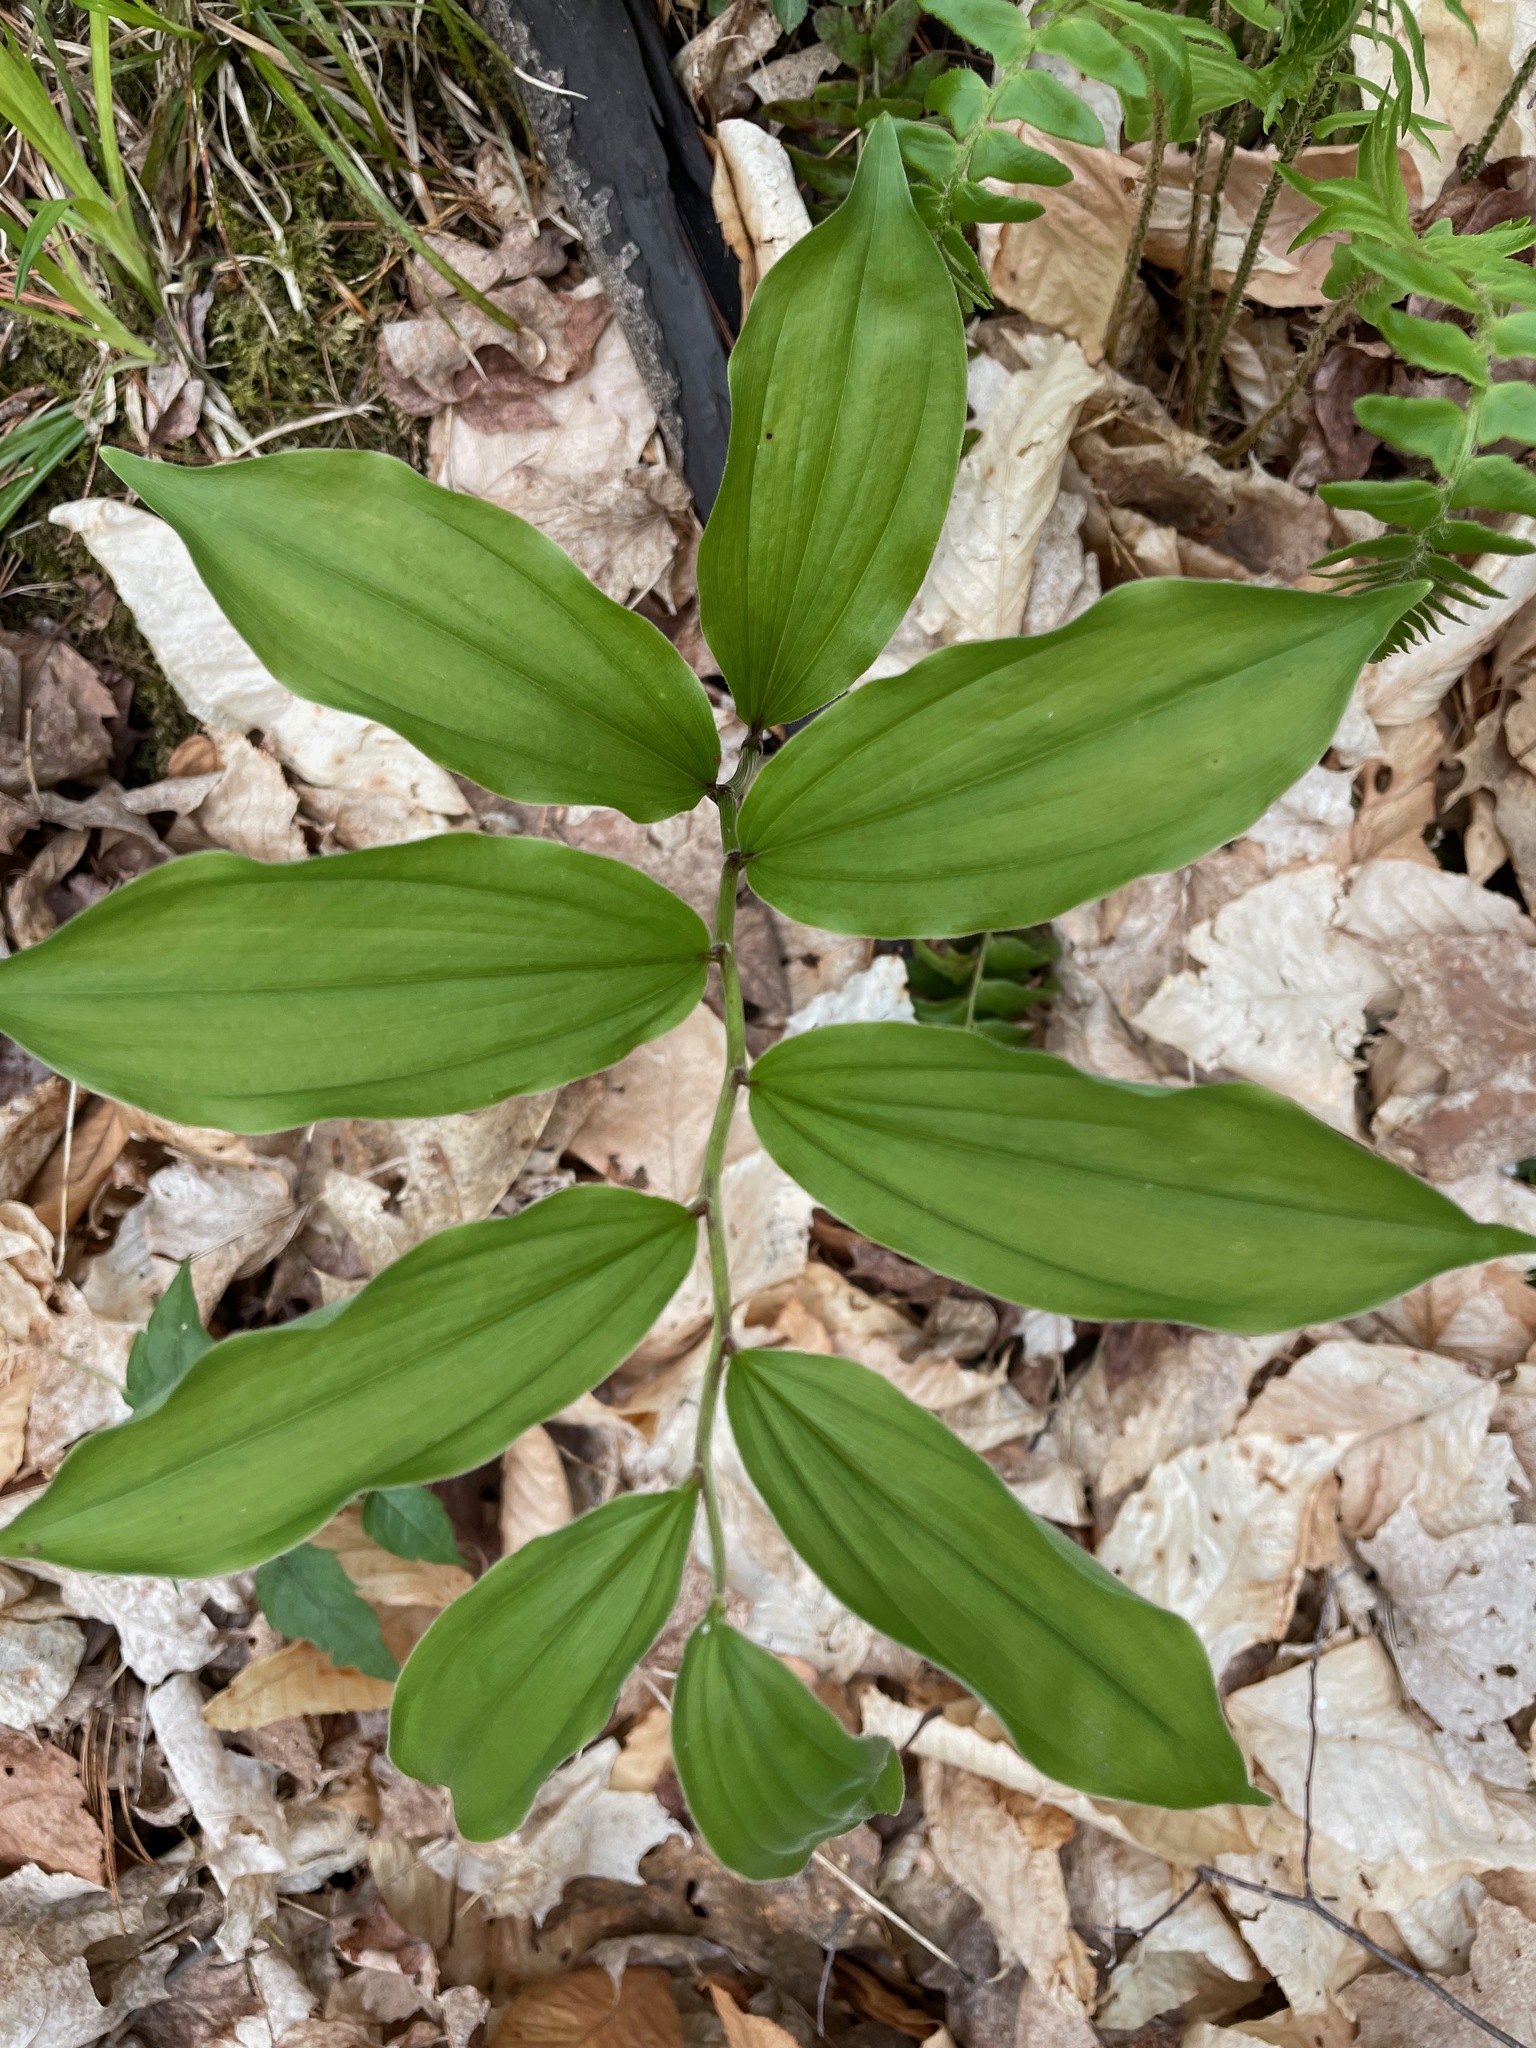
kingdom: Plantae
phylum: Tracheophyta
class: Liliopsida
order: Asparagales
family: Asparagaceae
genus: Maianthemum
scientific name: Maianthemum racemosum
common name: False spikenard
